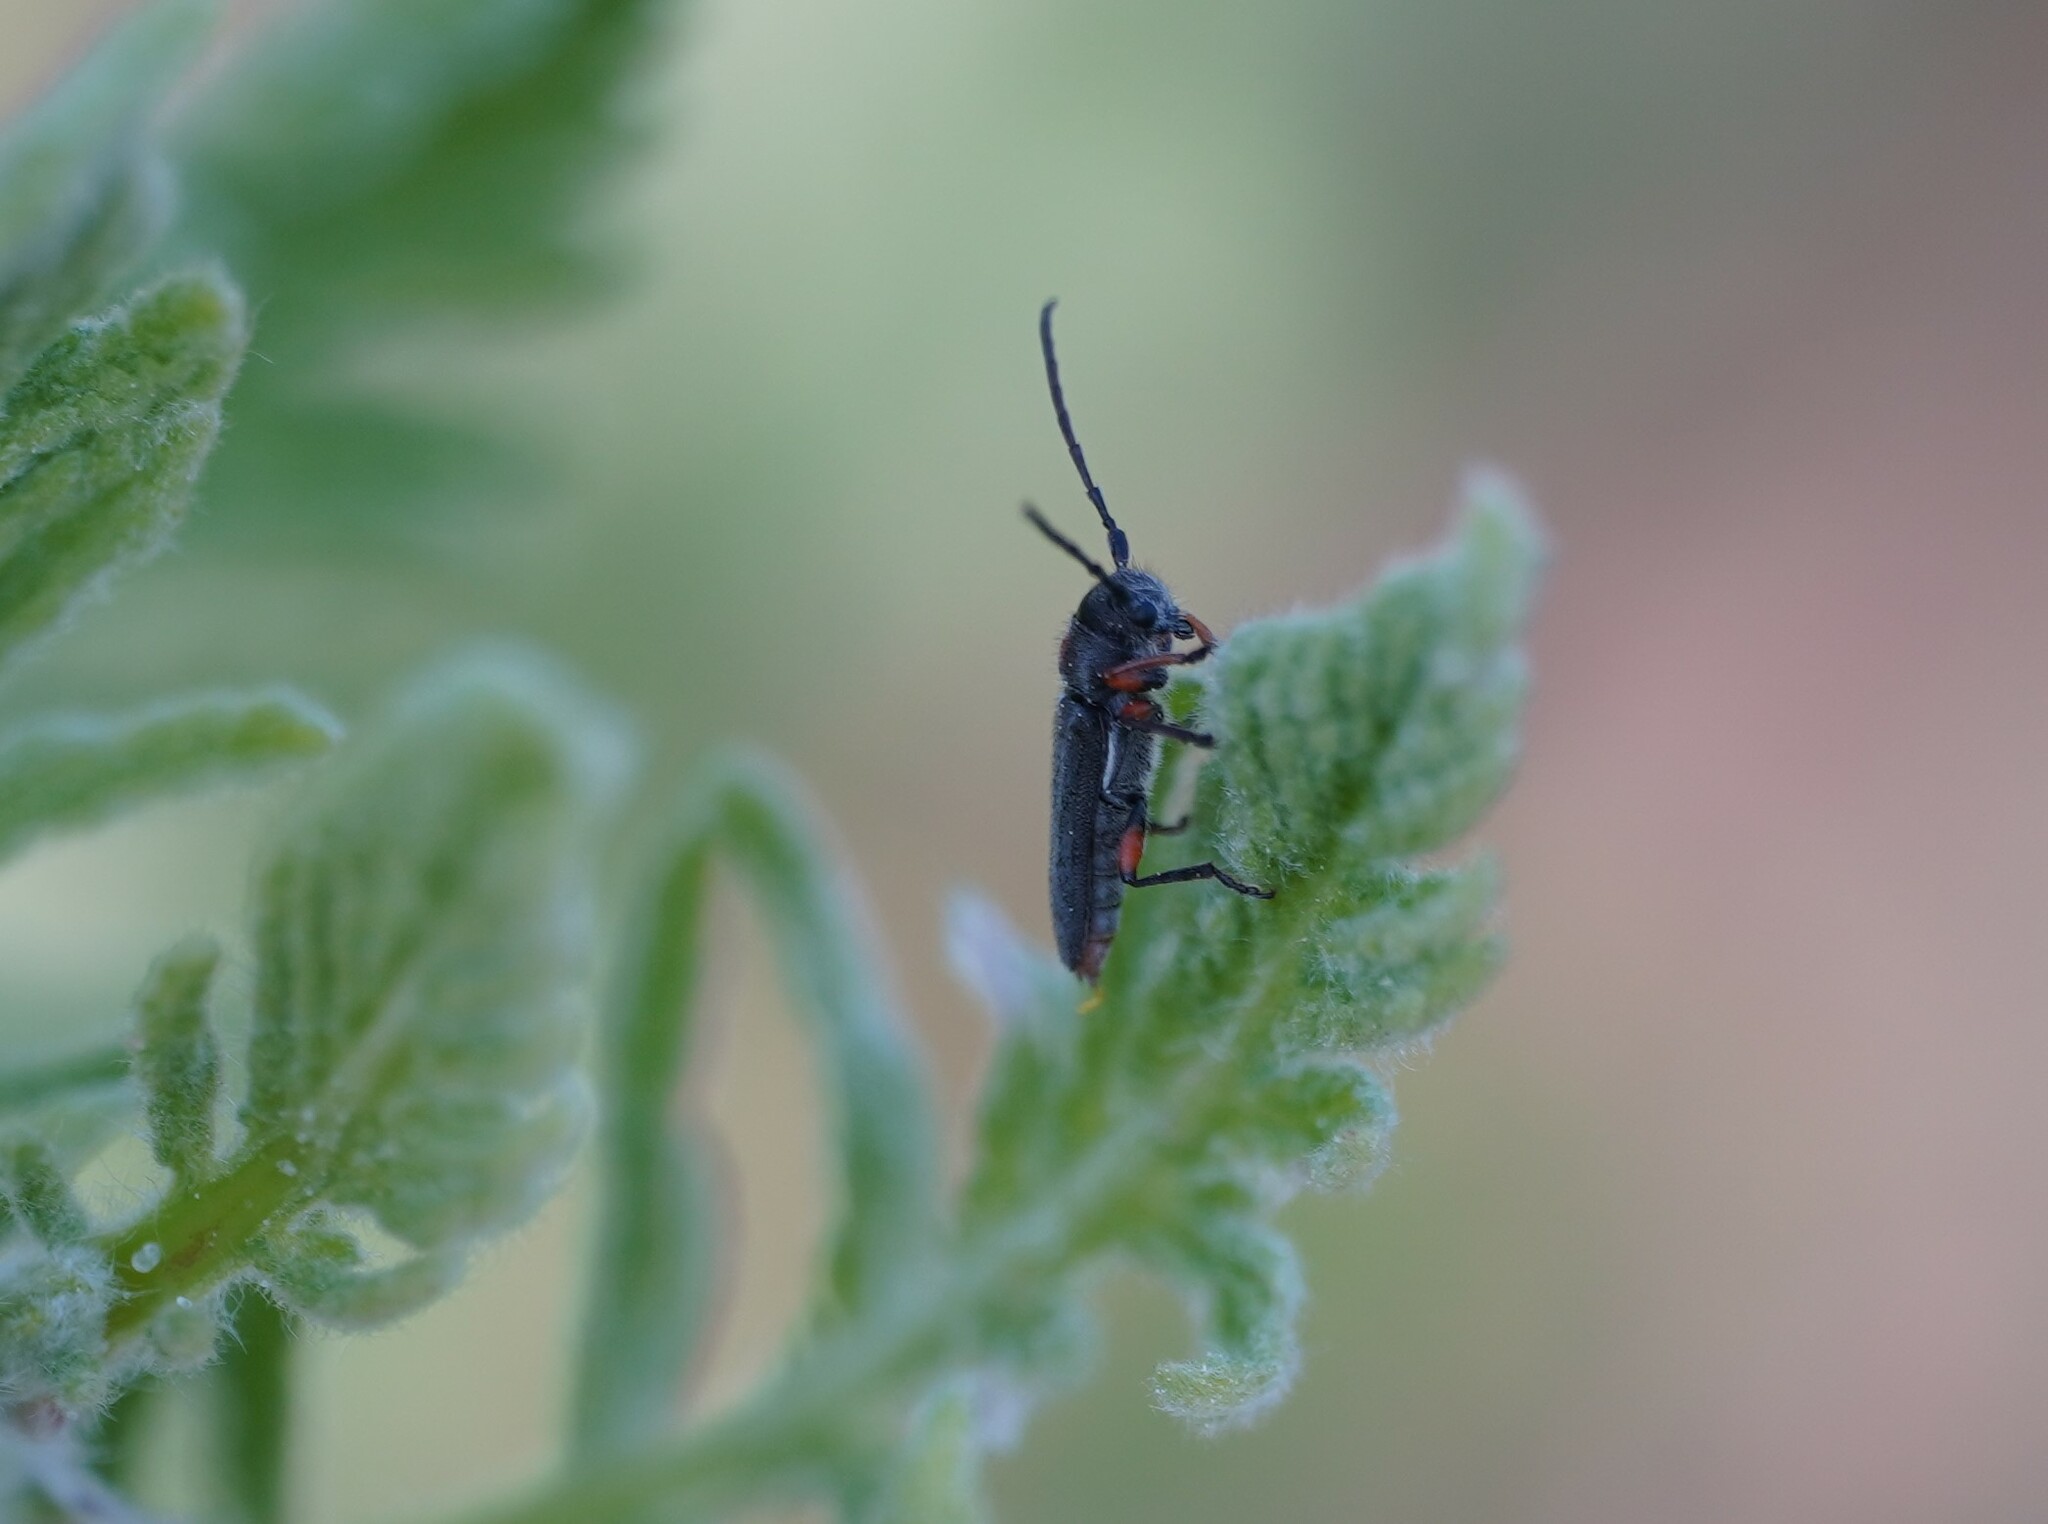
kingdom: Animalia
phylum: Arthropoda
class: Insecta
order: Coleoptera
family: Cerambycidae
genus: Phytoecia
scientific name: Phytoecia pustulata
